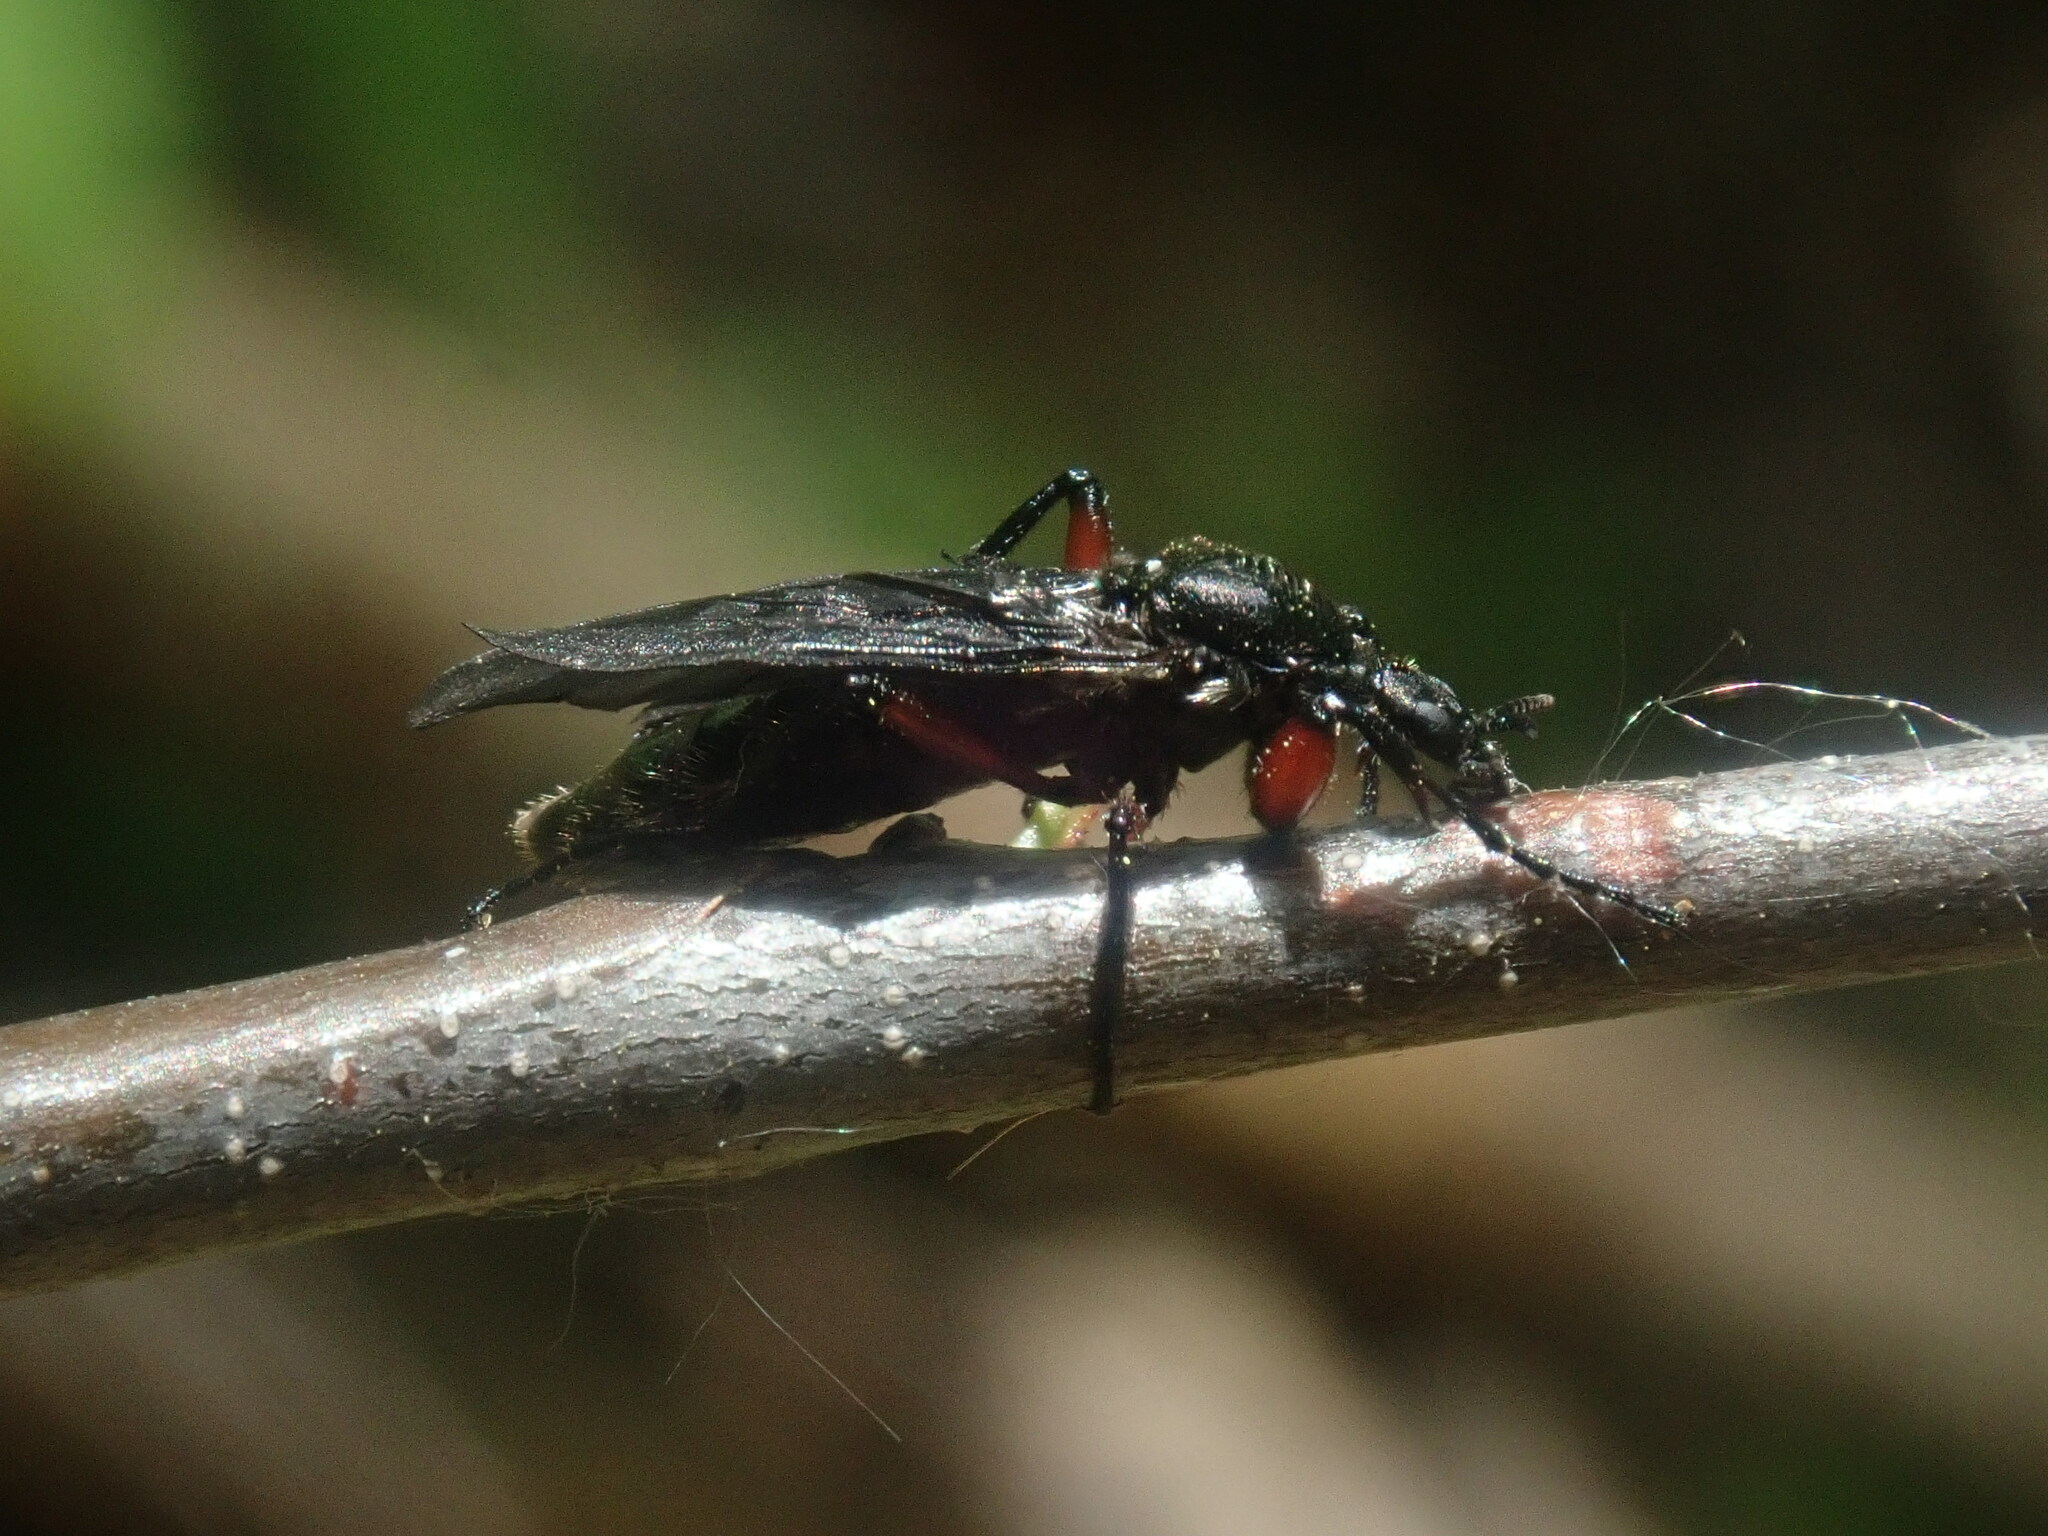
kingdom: Animalia
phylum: Arthropoda
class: Insecta
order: Diptera
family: Bibionidae
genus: Bibio
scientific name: Bibio femoratus
